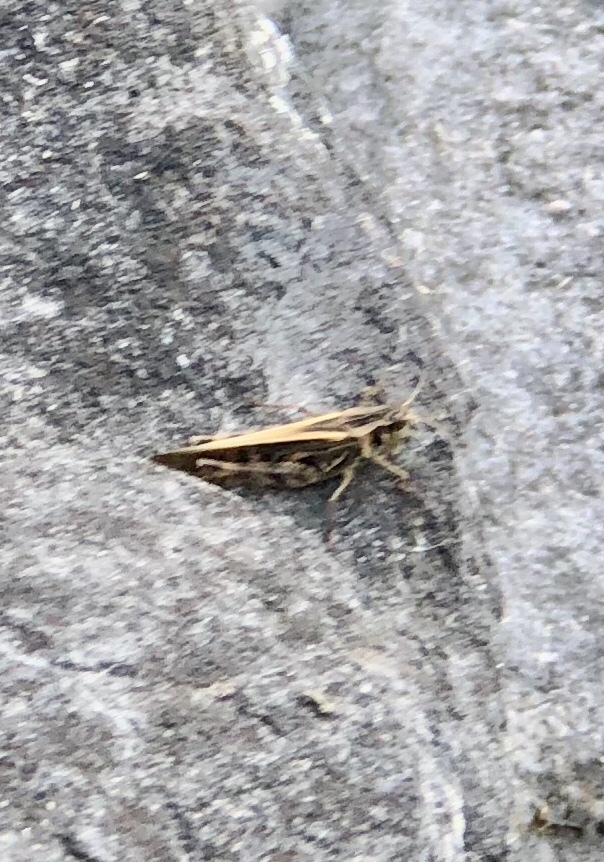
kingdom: Animalia
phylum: Arthropoda
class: Insecta
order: Orthoptera
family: Acrididae
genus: Camnula
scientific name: Camnula pellucida
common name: Clear-winged grasshopper
